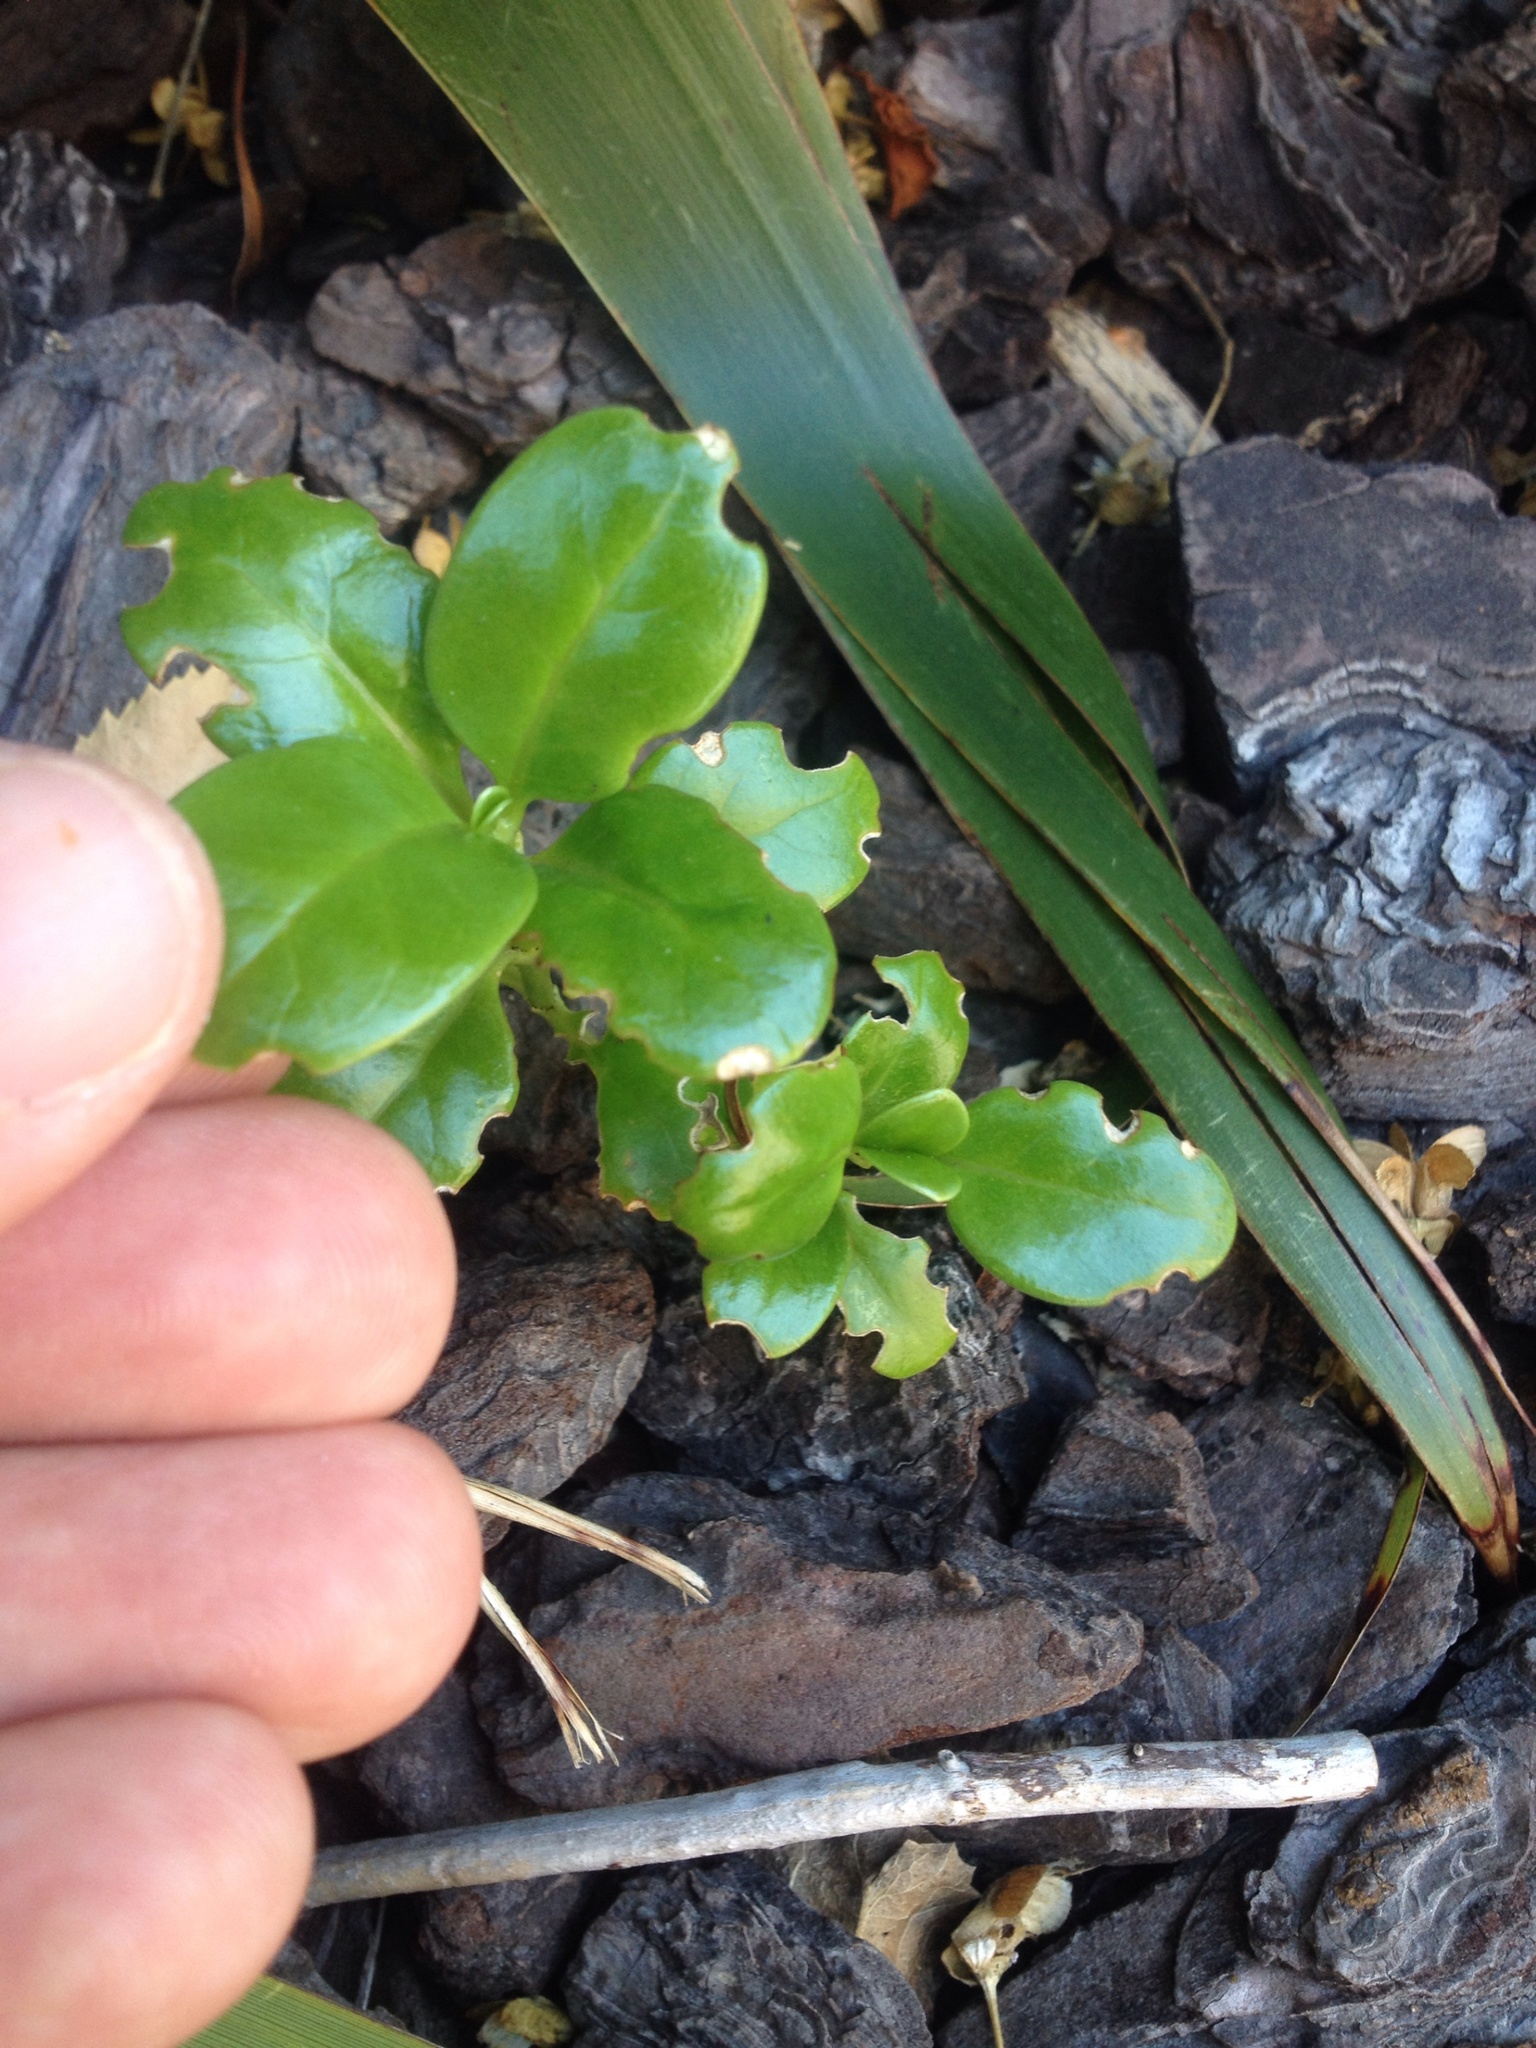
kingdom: Plantae
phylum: Tracheophyta
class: Magnoliopsida
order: Gentianales
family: Rubiaceae
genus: Coprosma
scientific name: Coprosma repens
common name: Tree bedstraw
